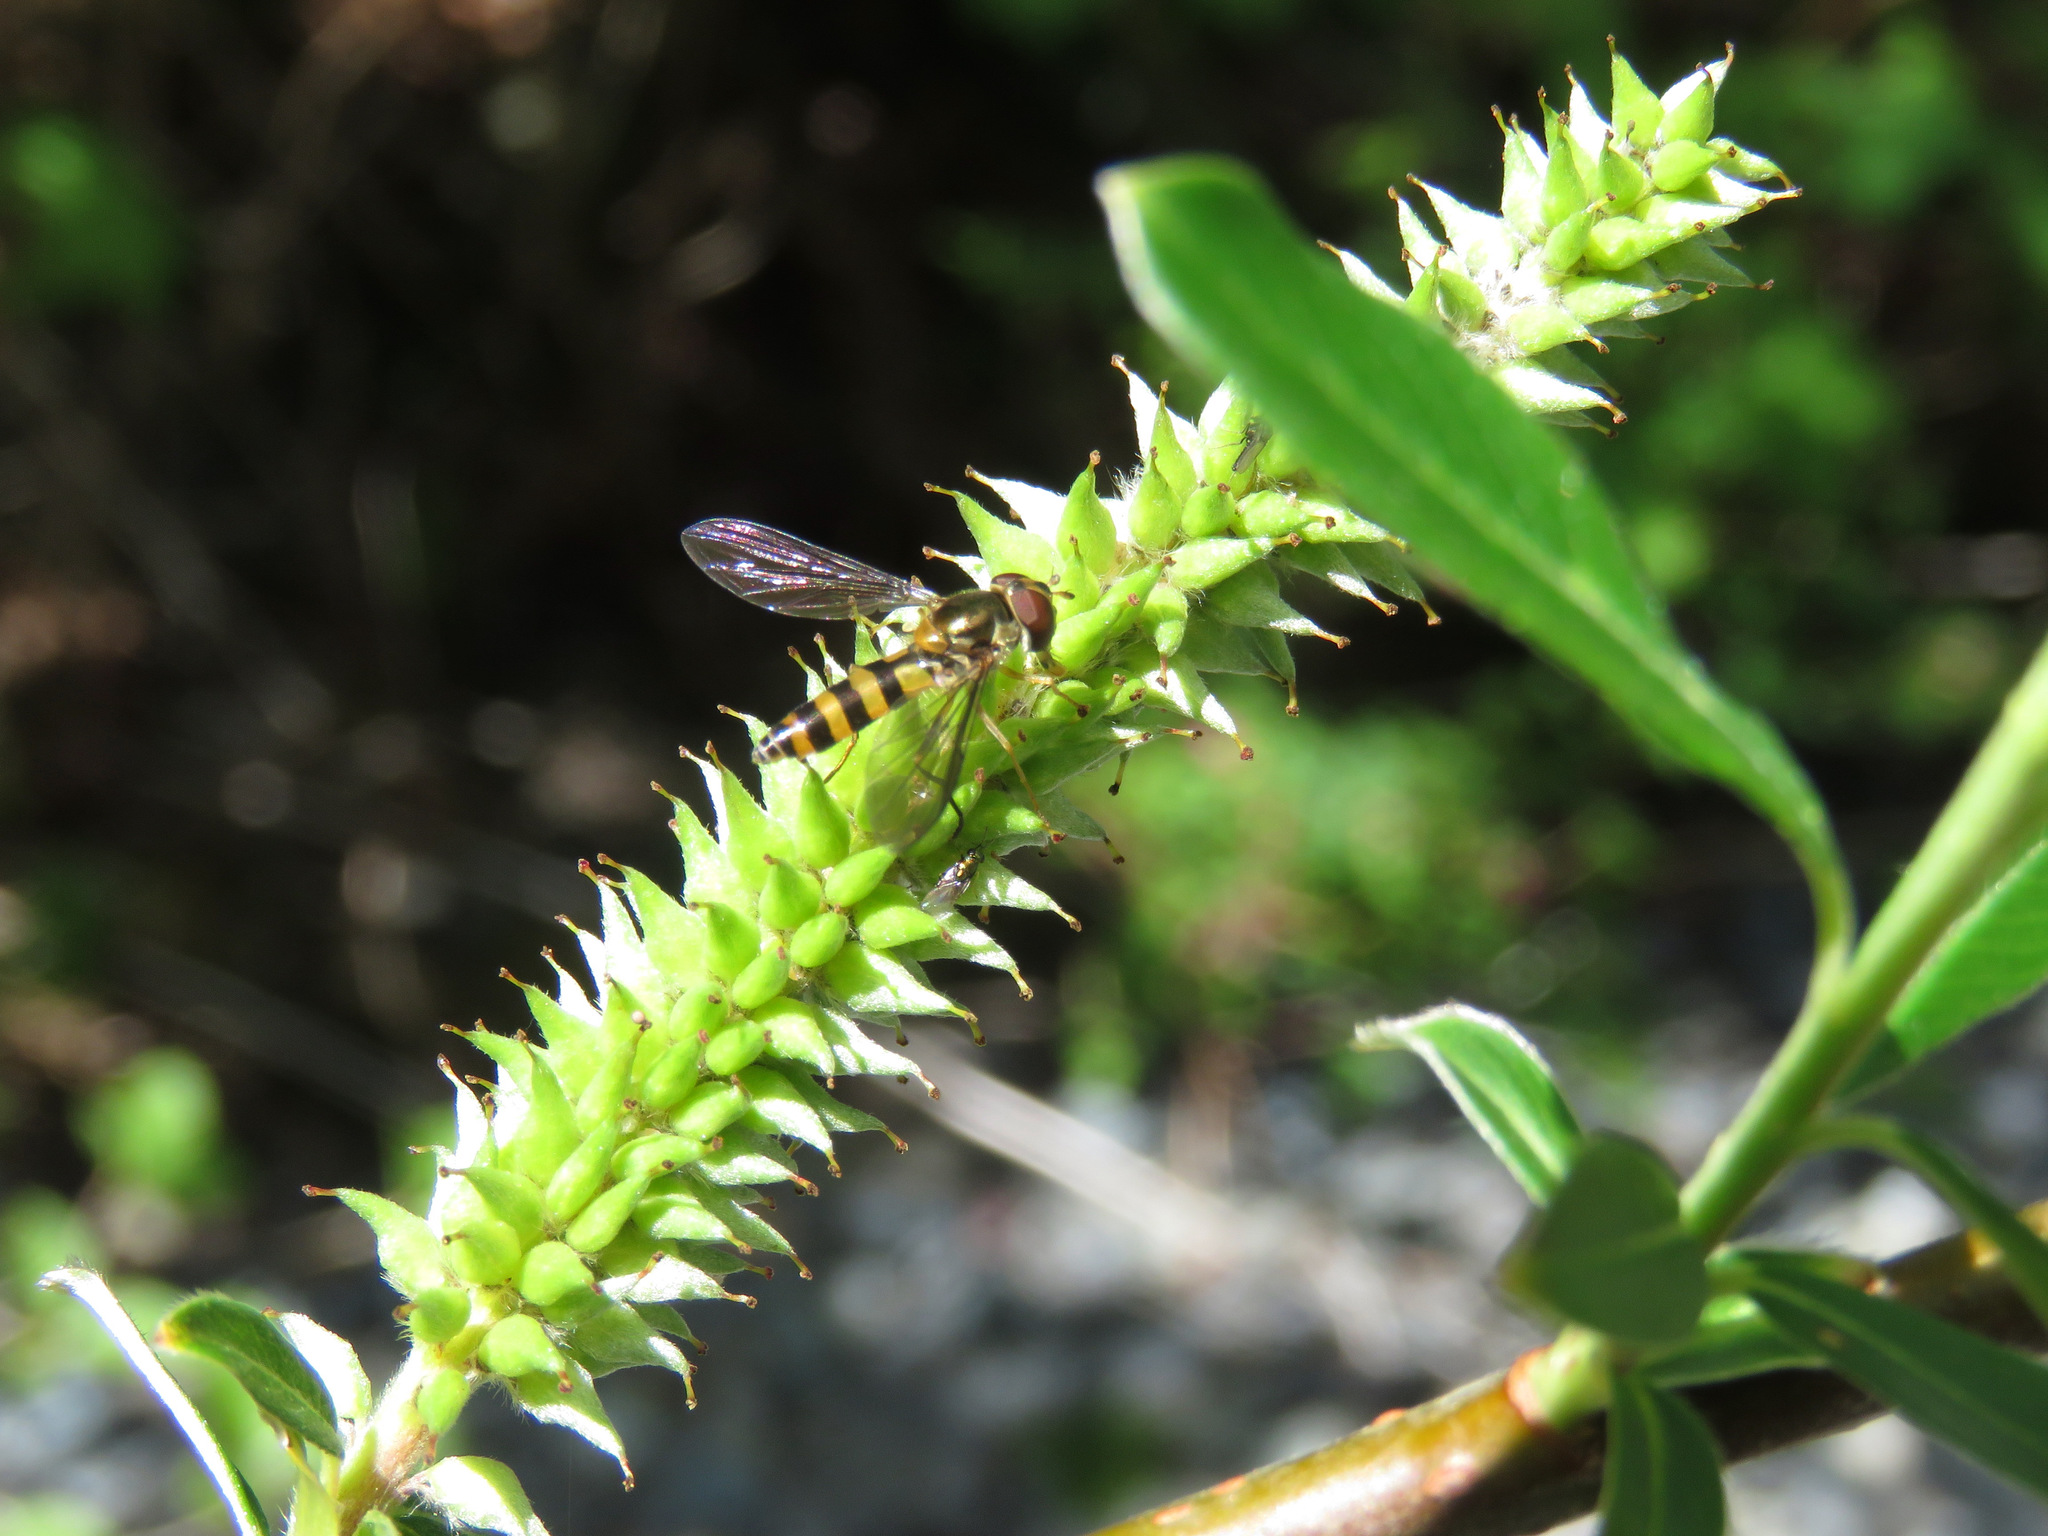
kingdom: Animalia
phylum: Arthropoda
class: Insecta
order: Diptera
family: Syrphidae
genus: Meliscaeva
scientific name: Meliscaeva cinctella
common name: American thintail fly
